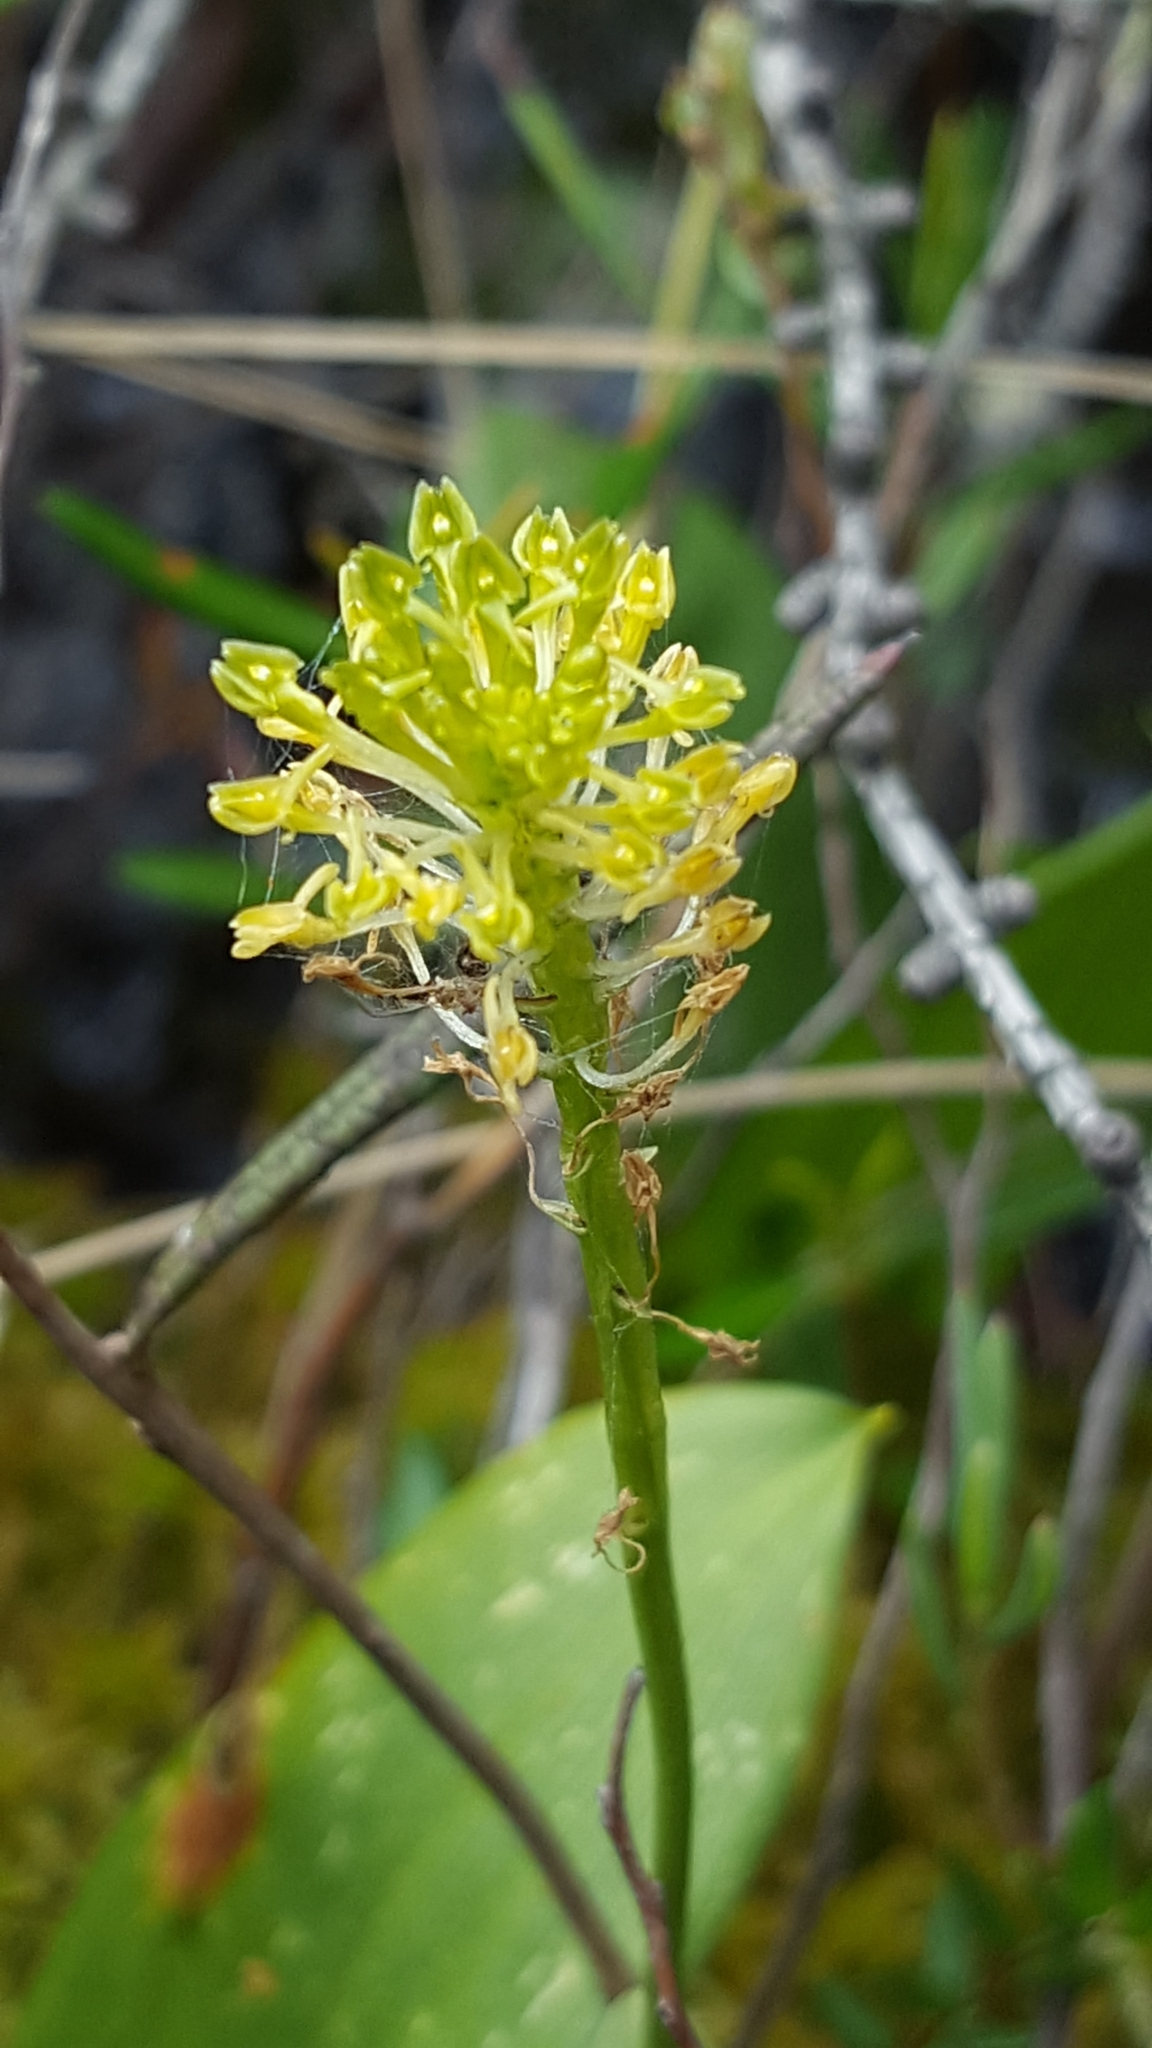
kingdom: Plantae
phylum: Tracheophyta
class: Liliopsida
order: Asparagales
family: Orchidaceae
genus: Malaxis
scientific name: Malaxis unifolia
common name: Green adder's-mouth
